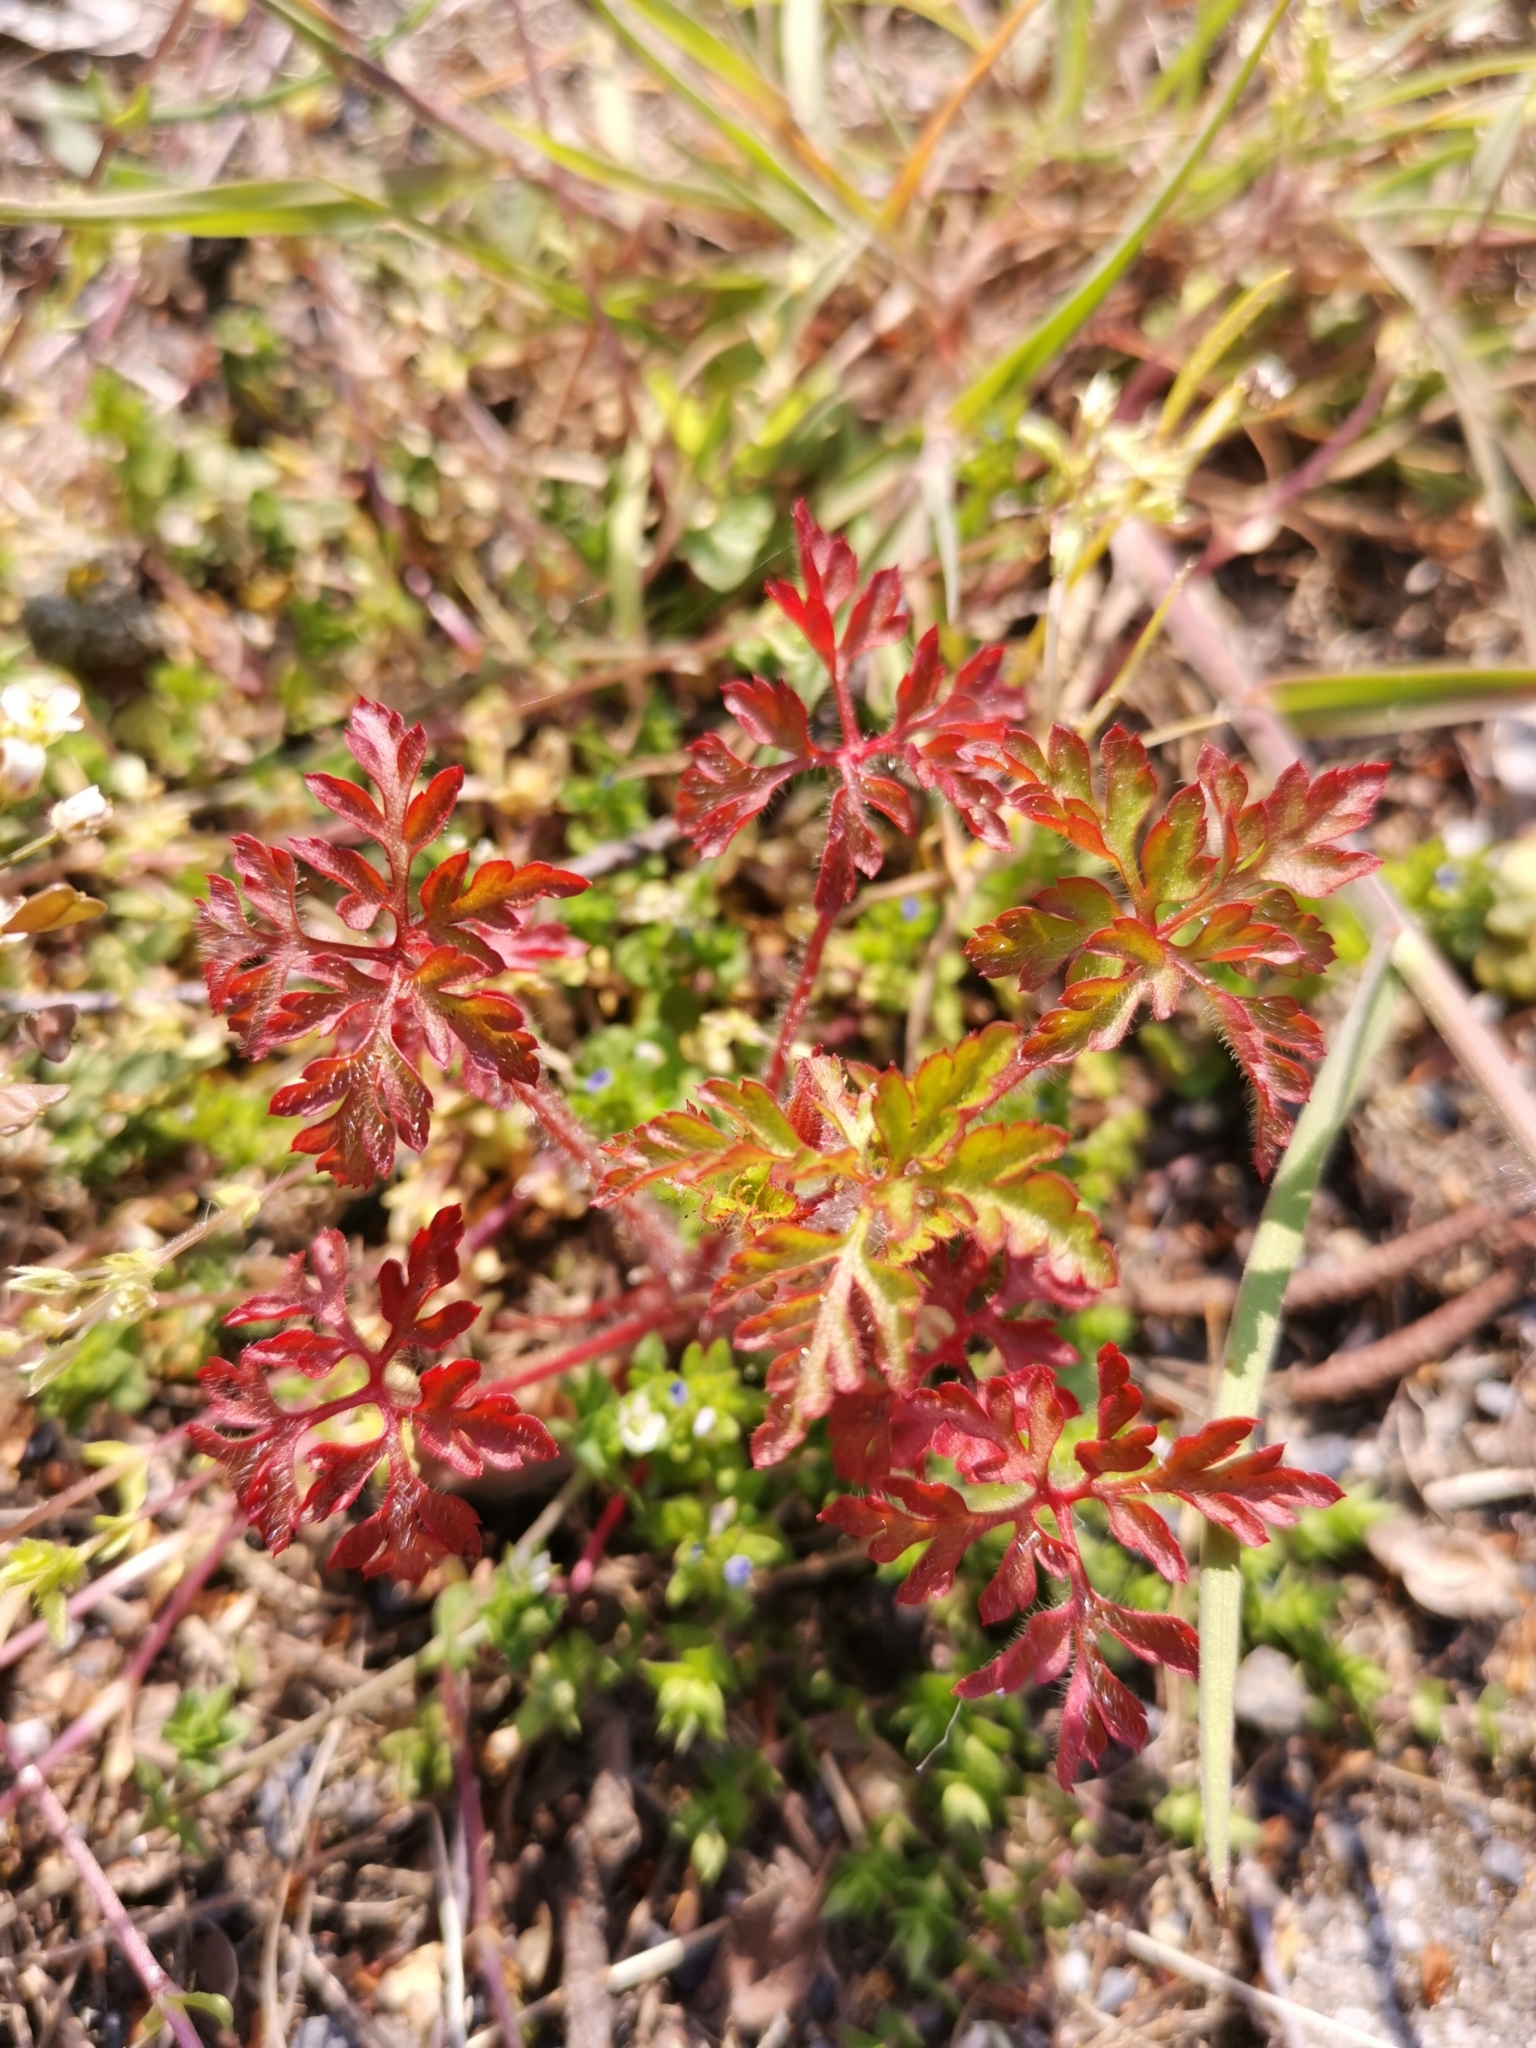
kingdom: Plantae
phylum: Tracheophyta
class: Magnoliopsida
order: Geraniales
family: Geraniaceae
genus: Geranium
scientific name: Geranium robertianum
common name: Herb-robert
